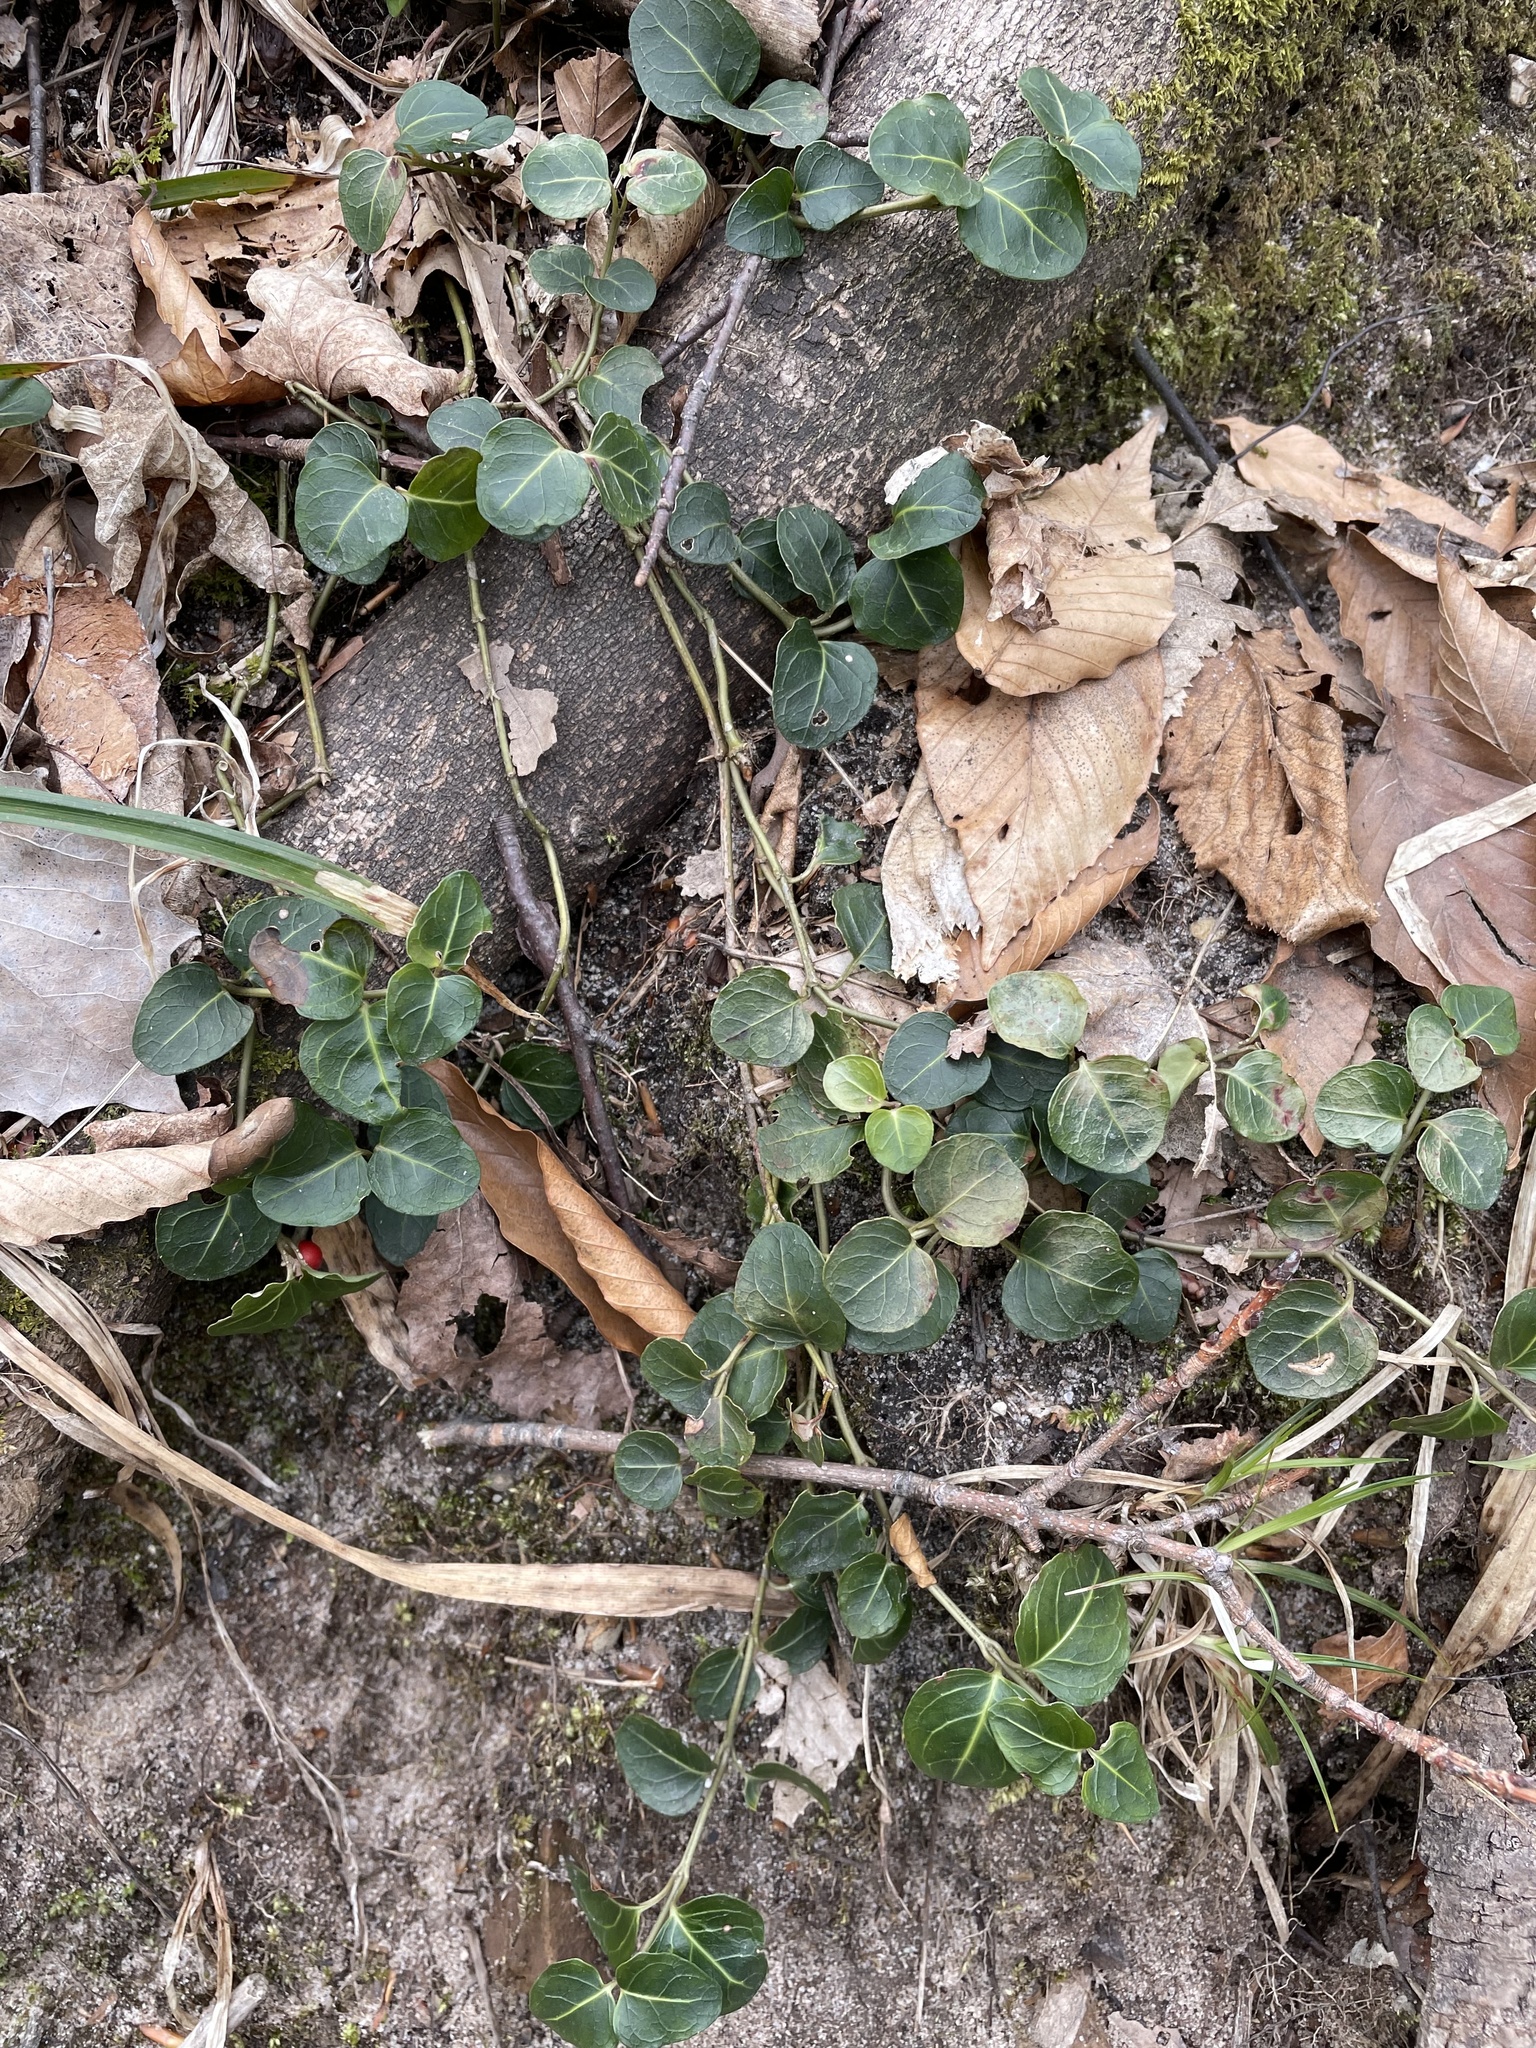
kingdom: Plantae
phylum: Tracheophyta
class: Magnoliopsida
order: Gentianales
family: Rubiaceae
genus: Mitchella
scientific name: Mitchella repens
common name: Partridge-berry
